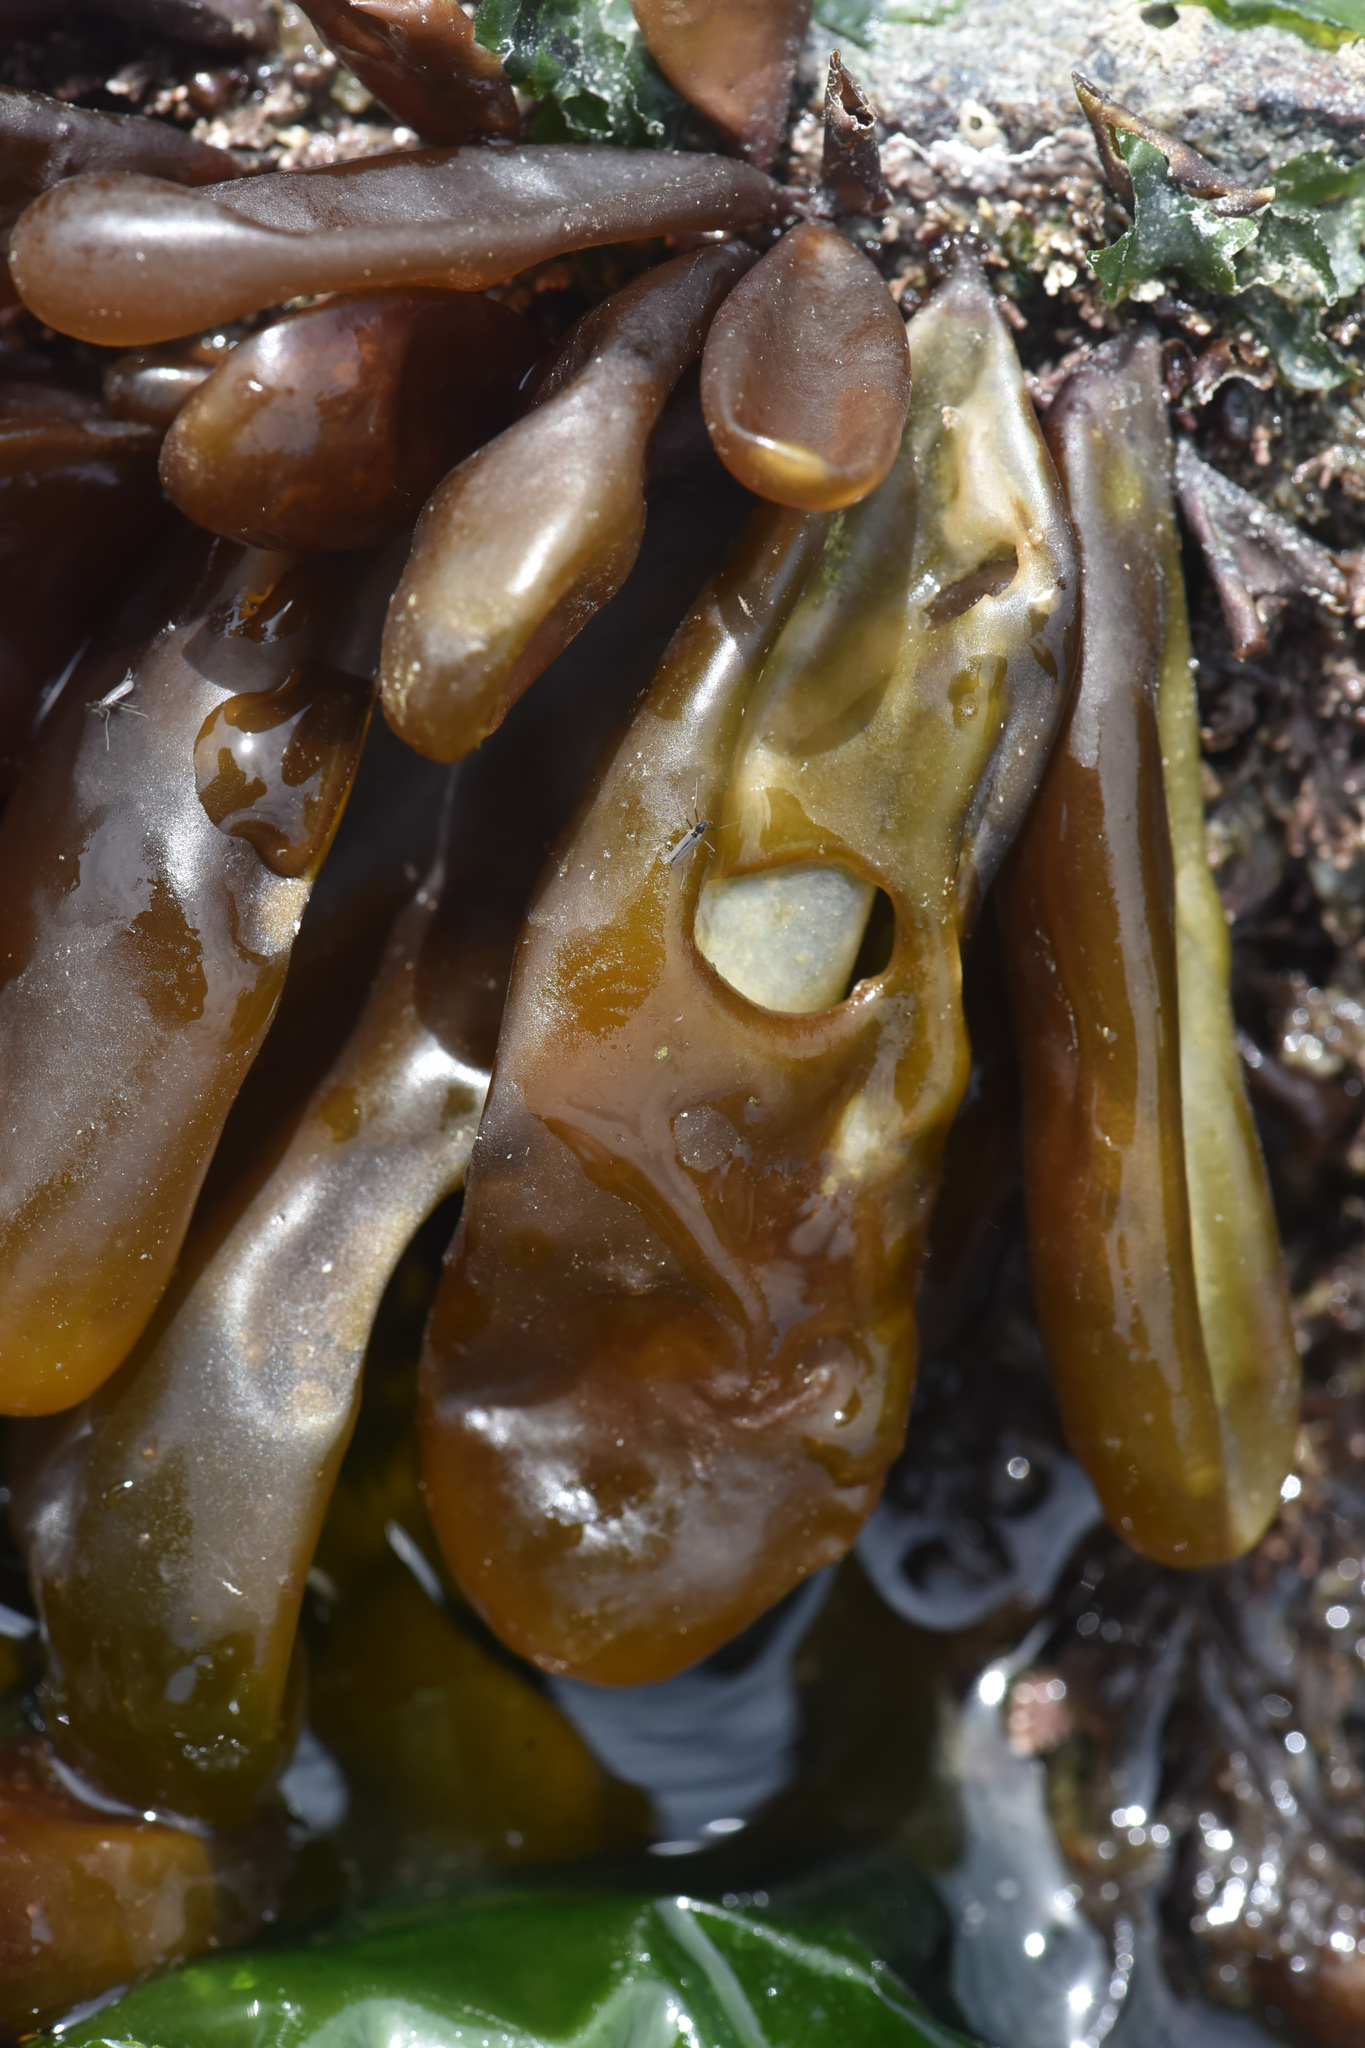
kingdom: Plantae
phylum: Rhodophyta
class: Florideophyceae
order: Palmariales
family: Palmariaceae
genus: Halosaccion
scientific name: Halosaccion glandiforme
